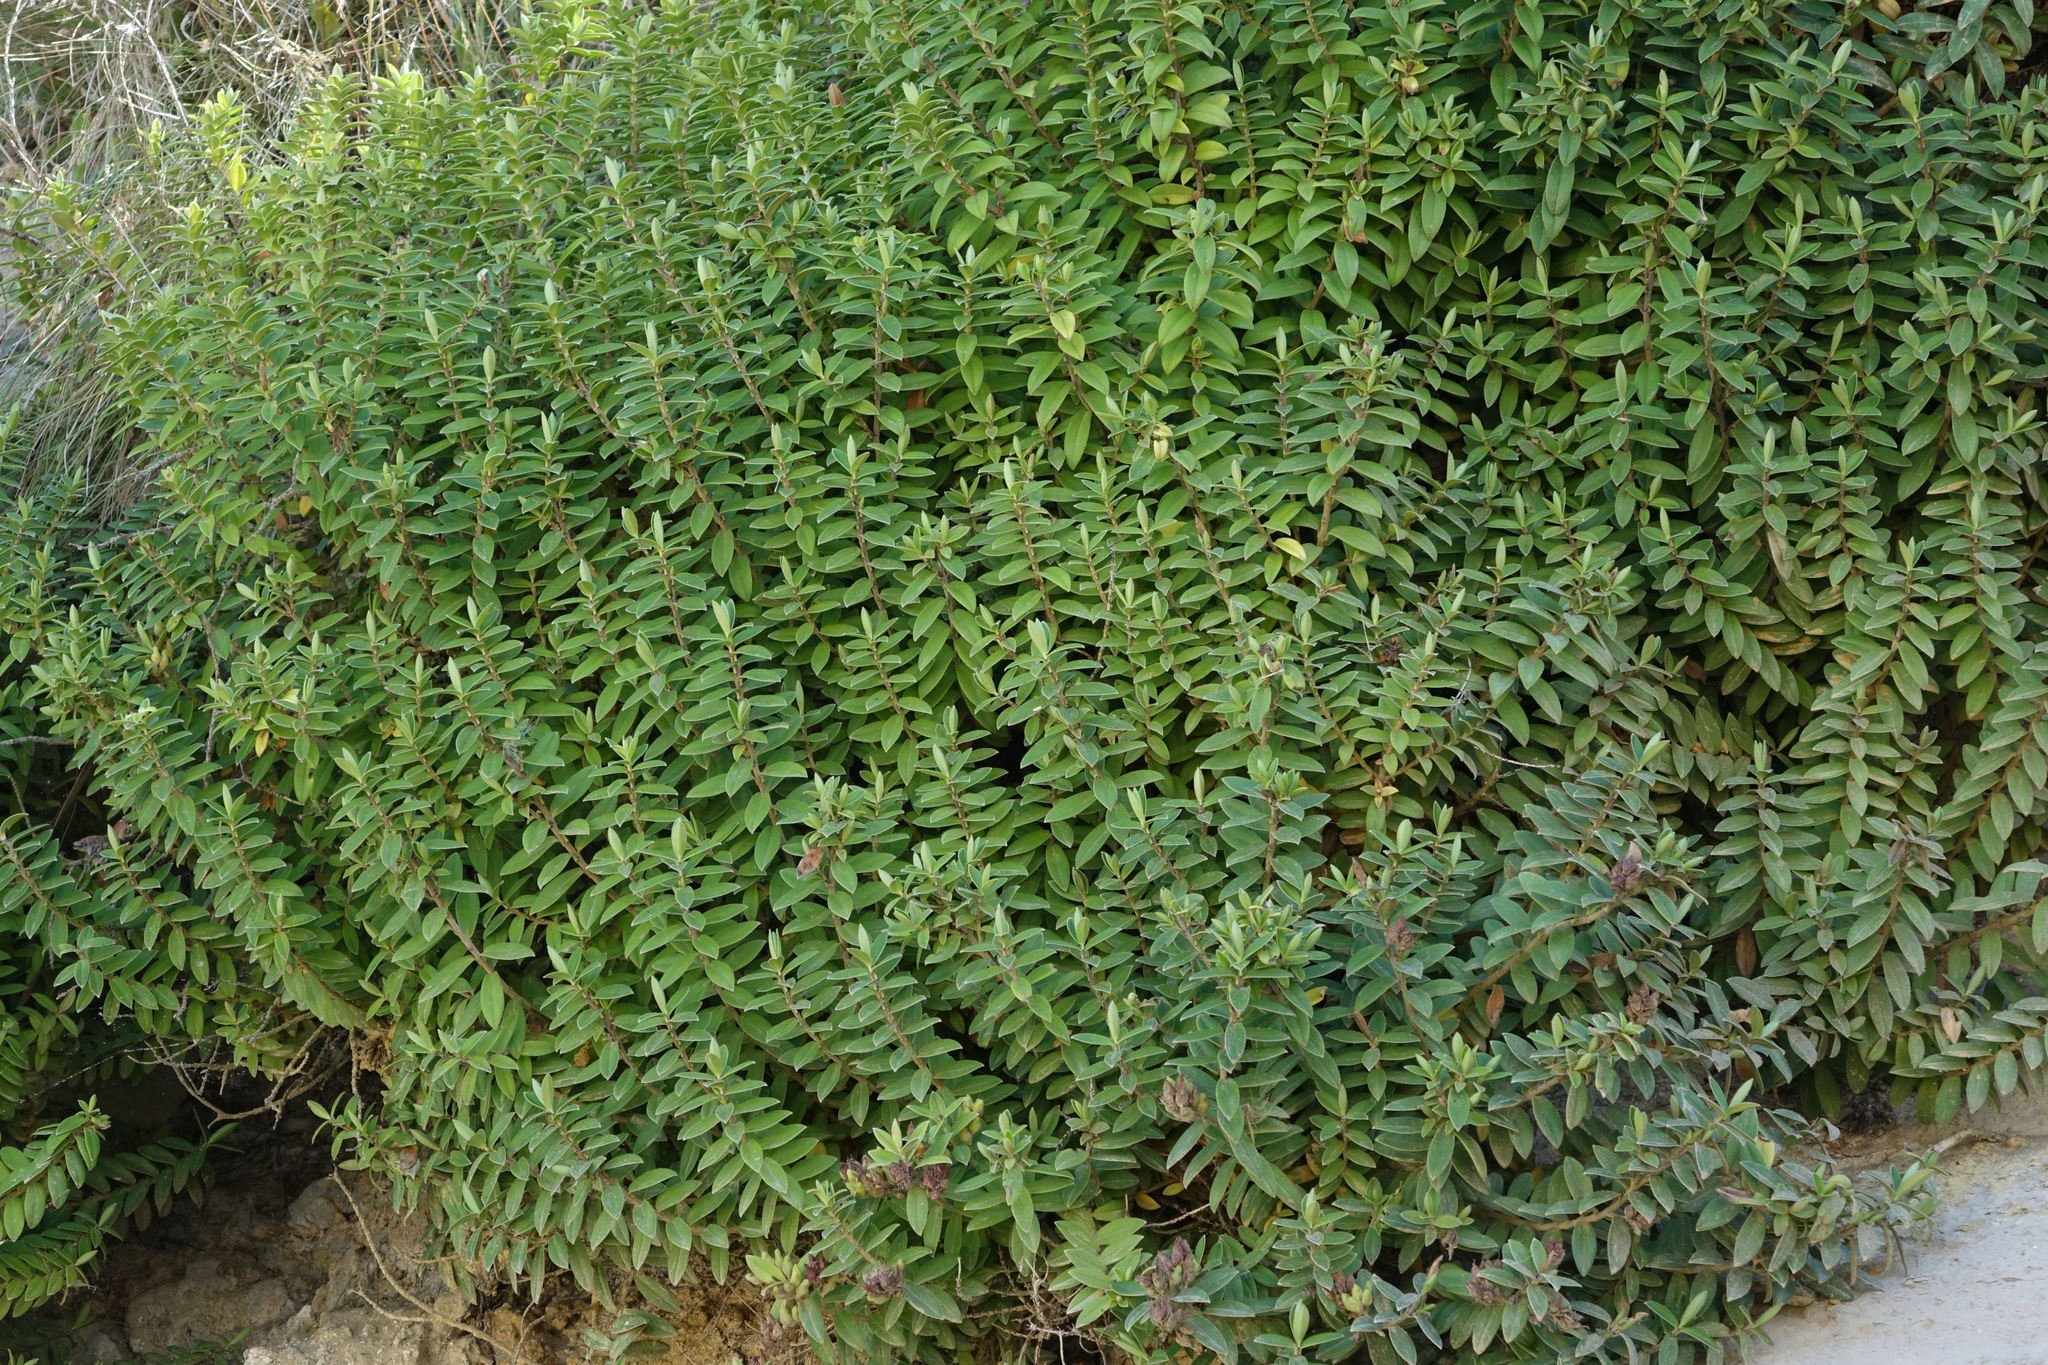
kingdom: Plantae
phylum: Tracheophyta
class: Magnoliopsida
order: Lamiales
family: Plantaginaceae
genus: Veronica
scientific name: Veronica elliptica
